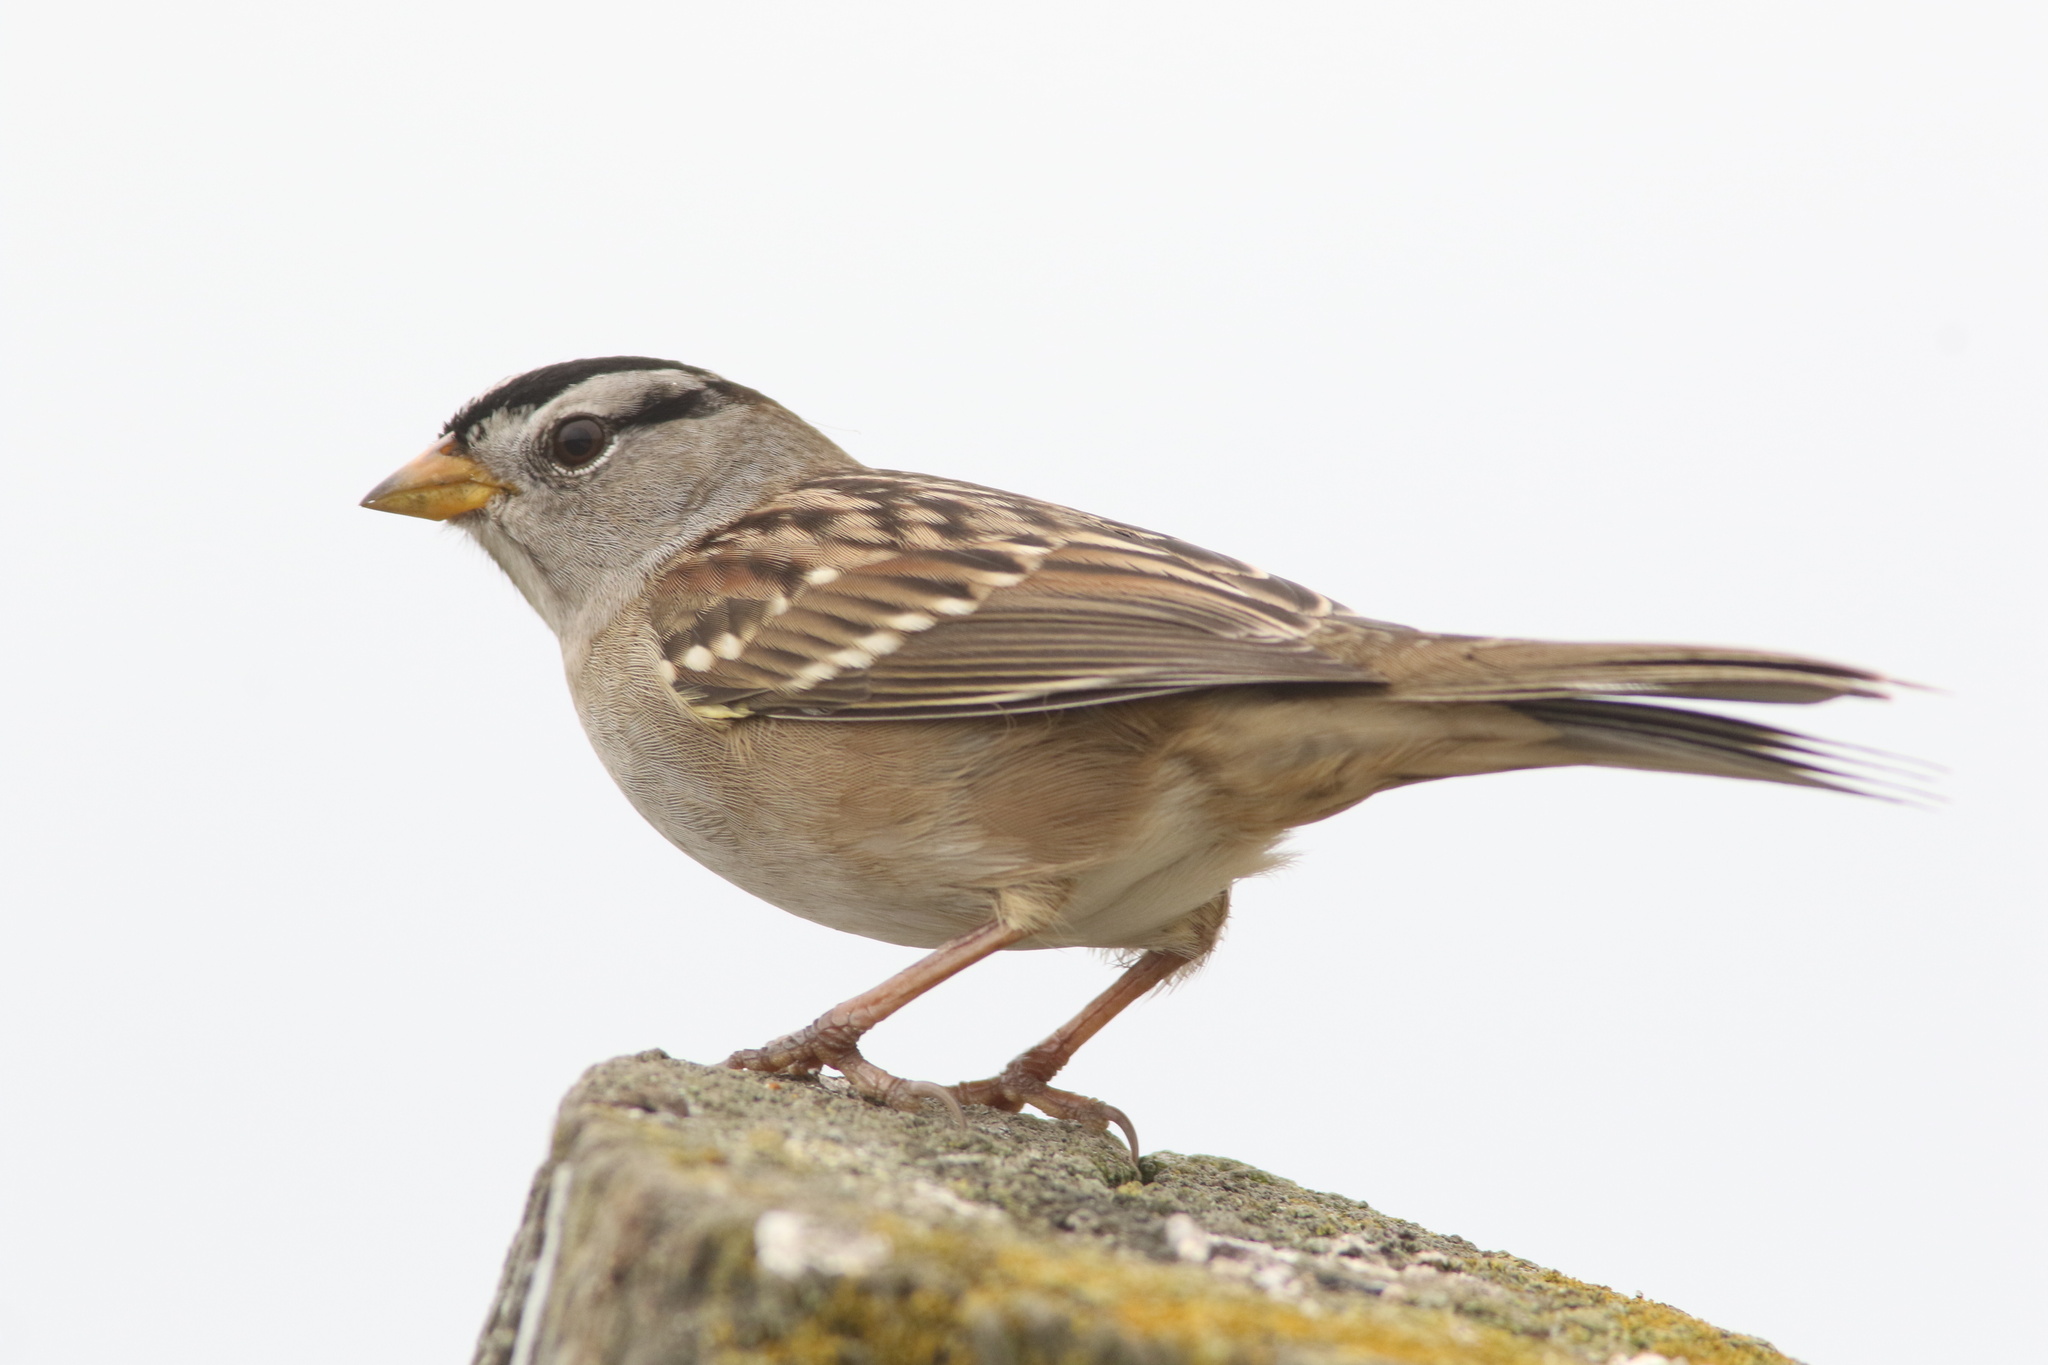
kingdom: Animalia
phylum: Chordata
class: Aves
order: Passeriformes
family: Passerellidae
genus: Zonotrichia
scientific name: Zonotrichia leucophrys
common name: White-crowned sparrow
